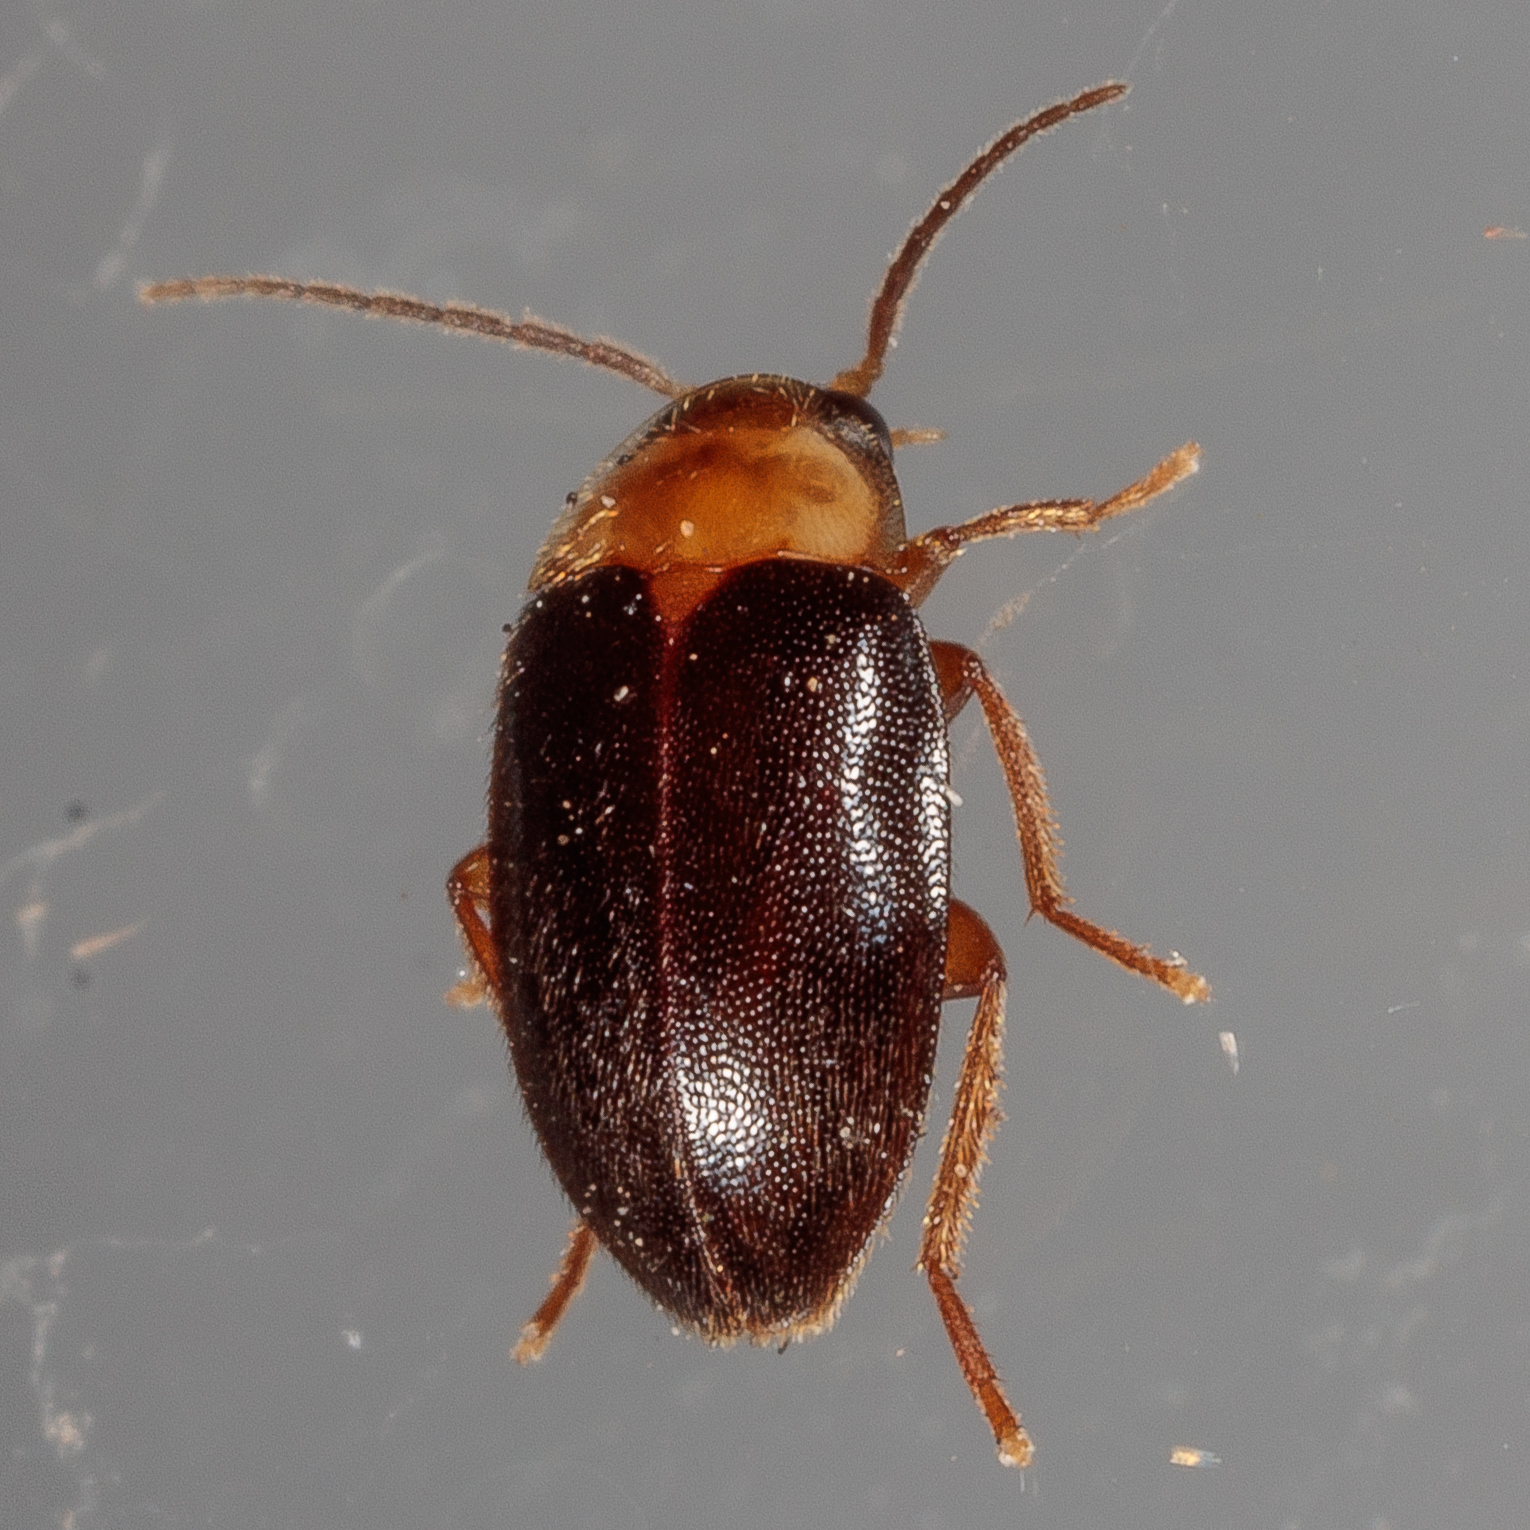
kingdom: Animalia
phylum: Arthropoda
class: Insecta
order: Coleoptera
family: Scirtidae
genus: Sacodes
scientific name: Sacodes pulchella
